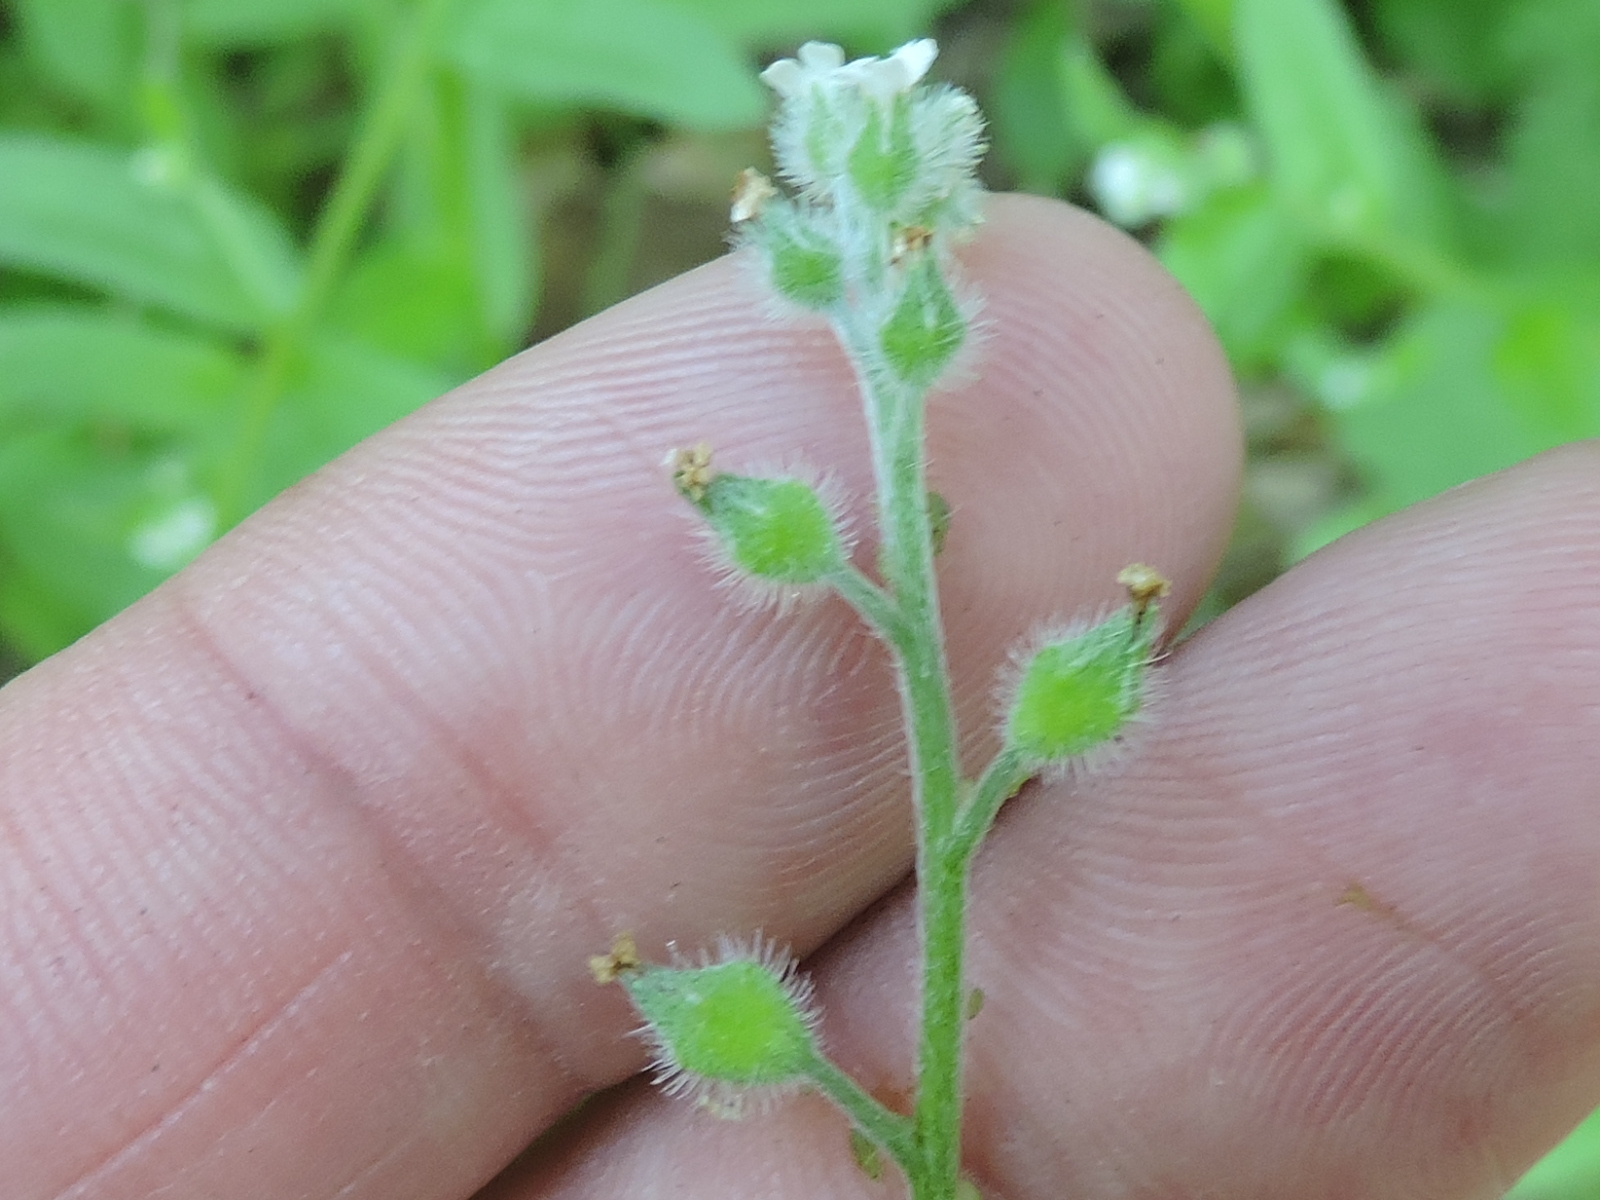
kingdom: Plantae
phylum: Tracheophyta
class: Magnoliopsida
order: Boraginales
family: Boraginaceae
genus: Myosotis
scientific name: Myosotis macrosperma
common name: Large-seed forget-me-not
